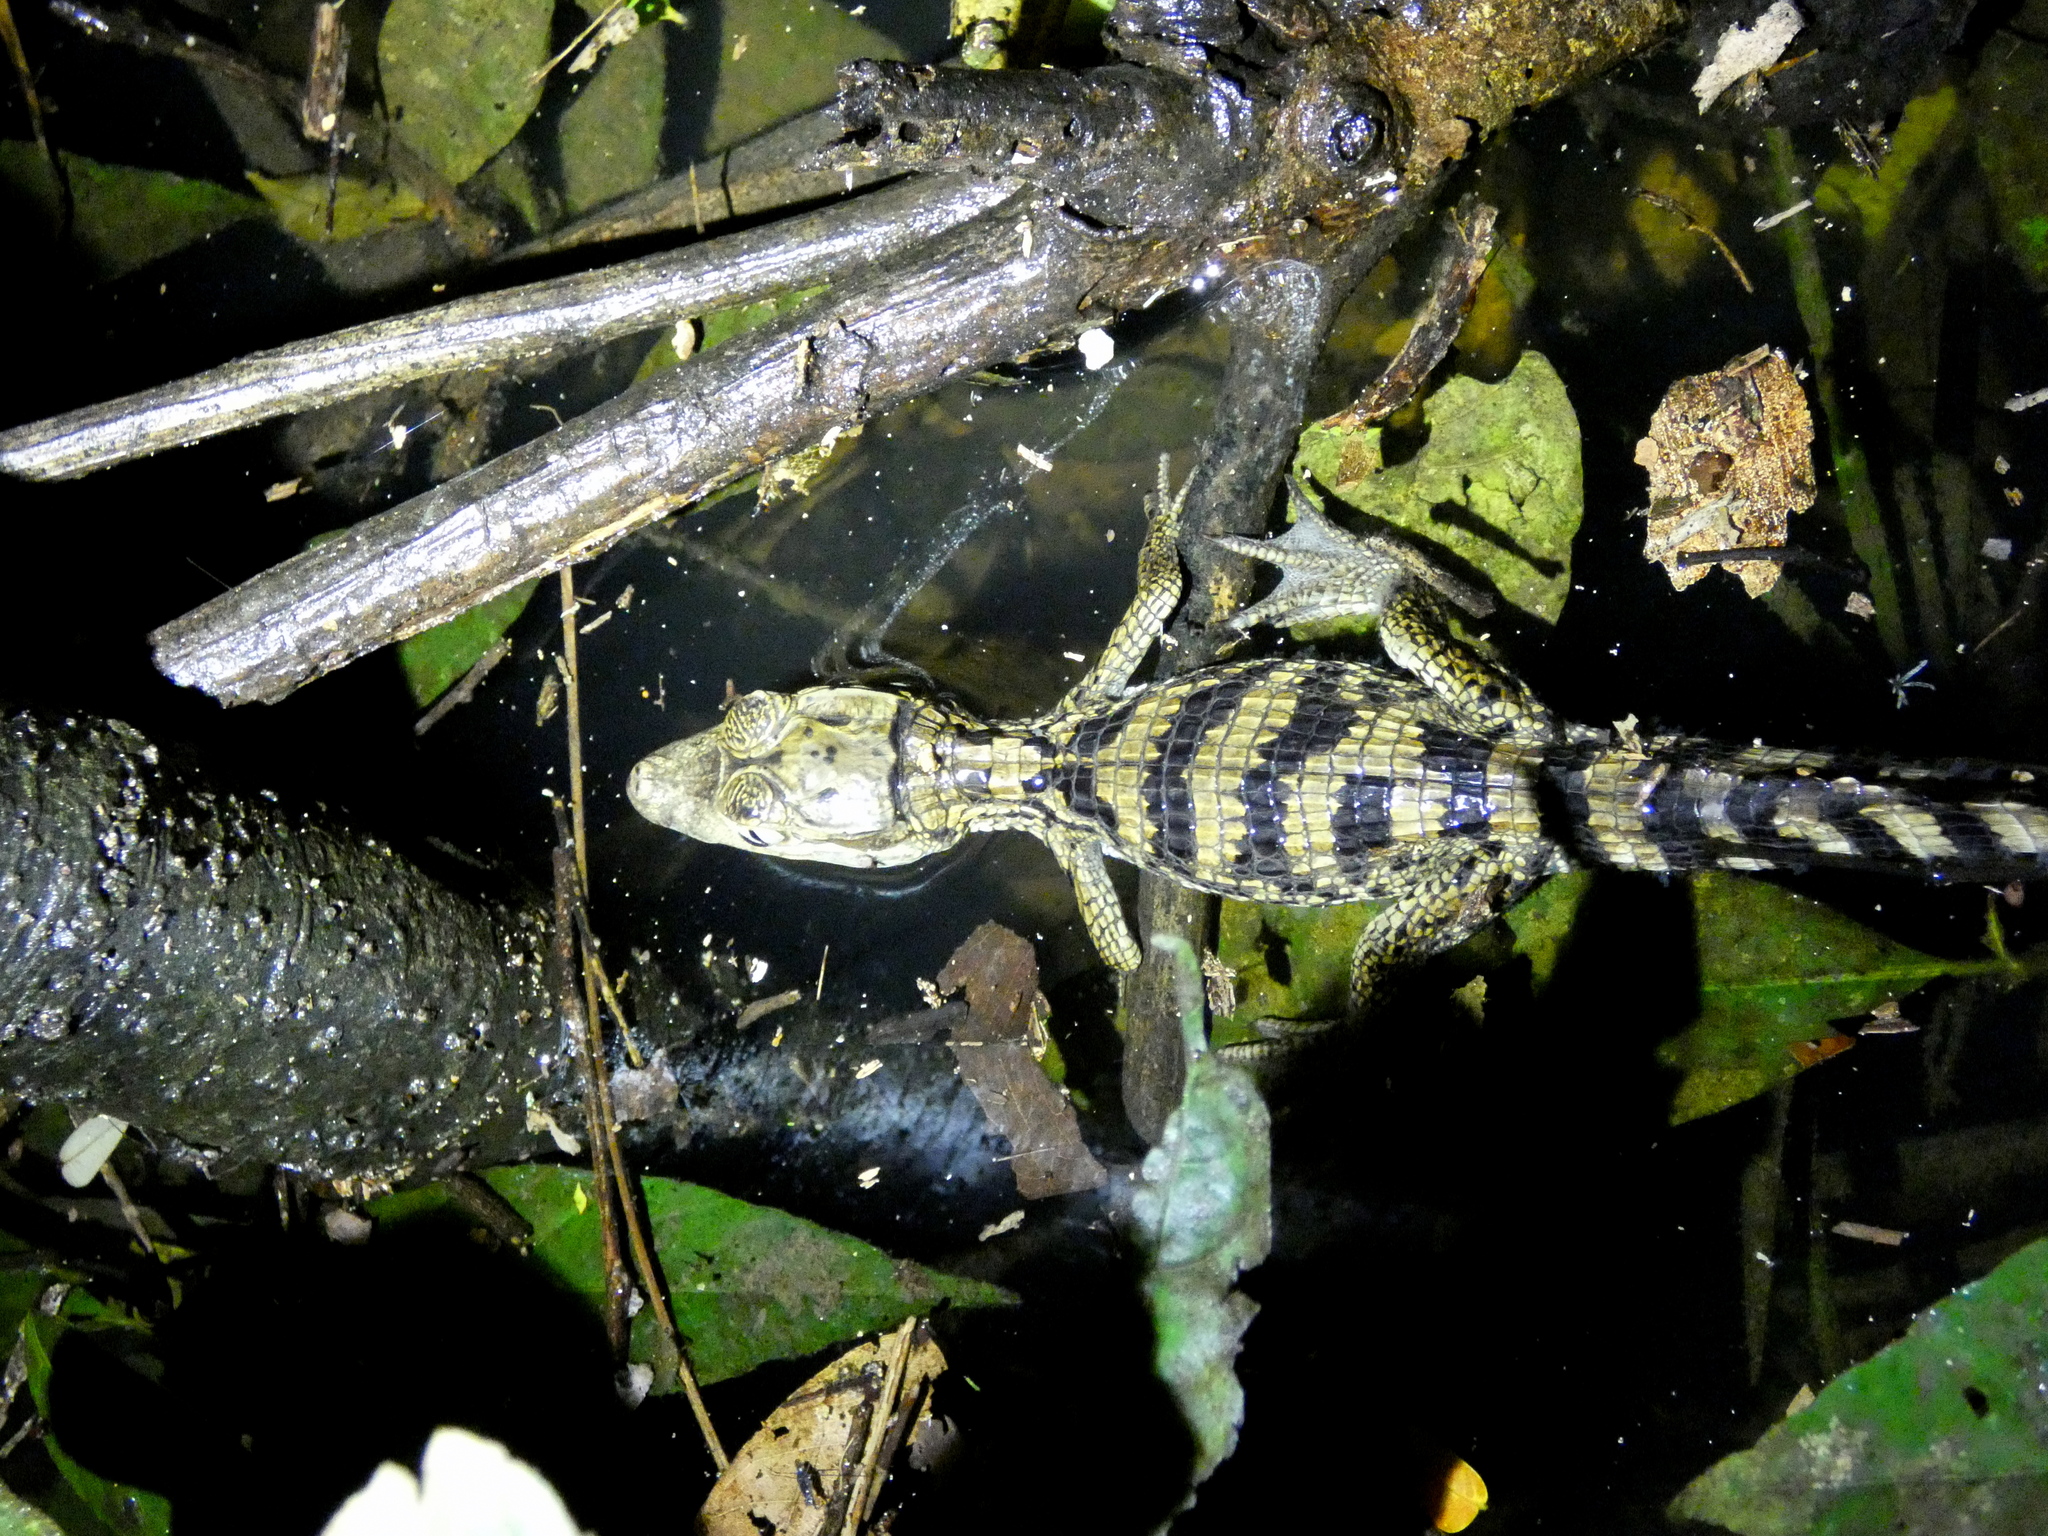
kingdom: Animalia
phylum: Chordata
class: Crocodylia
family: Alligatoridae
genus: Caiman
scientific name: Caiman crocodilus
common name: Common caiman
